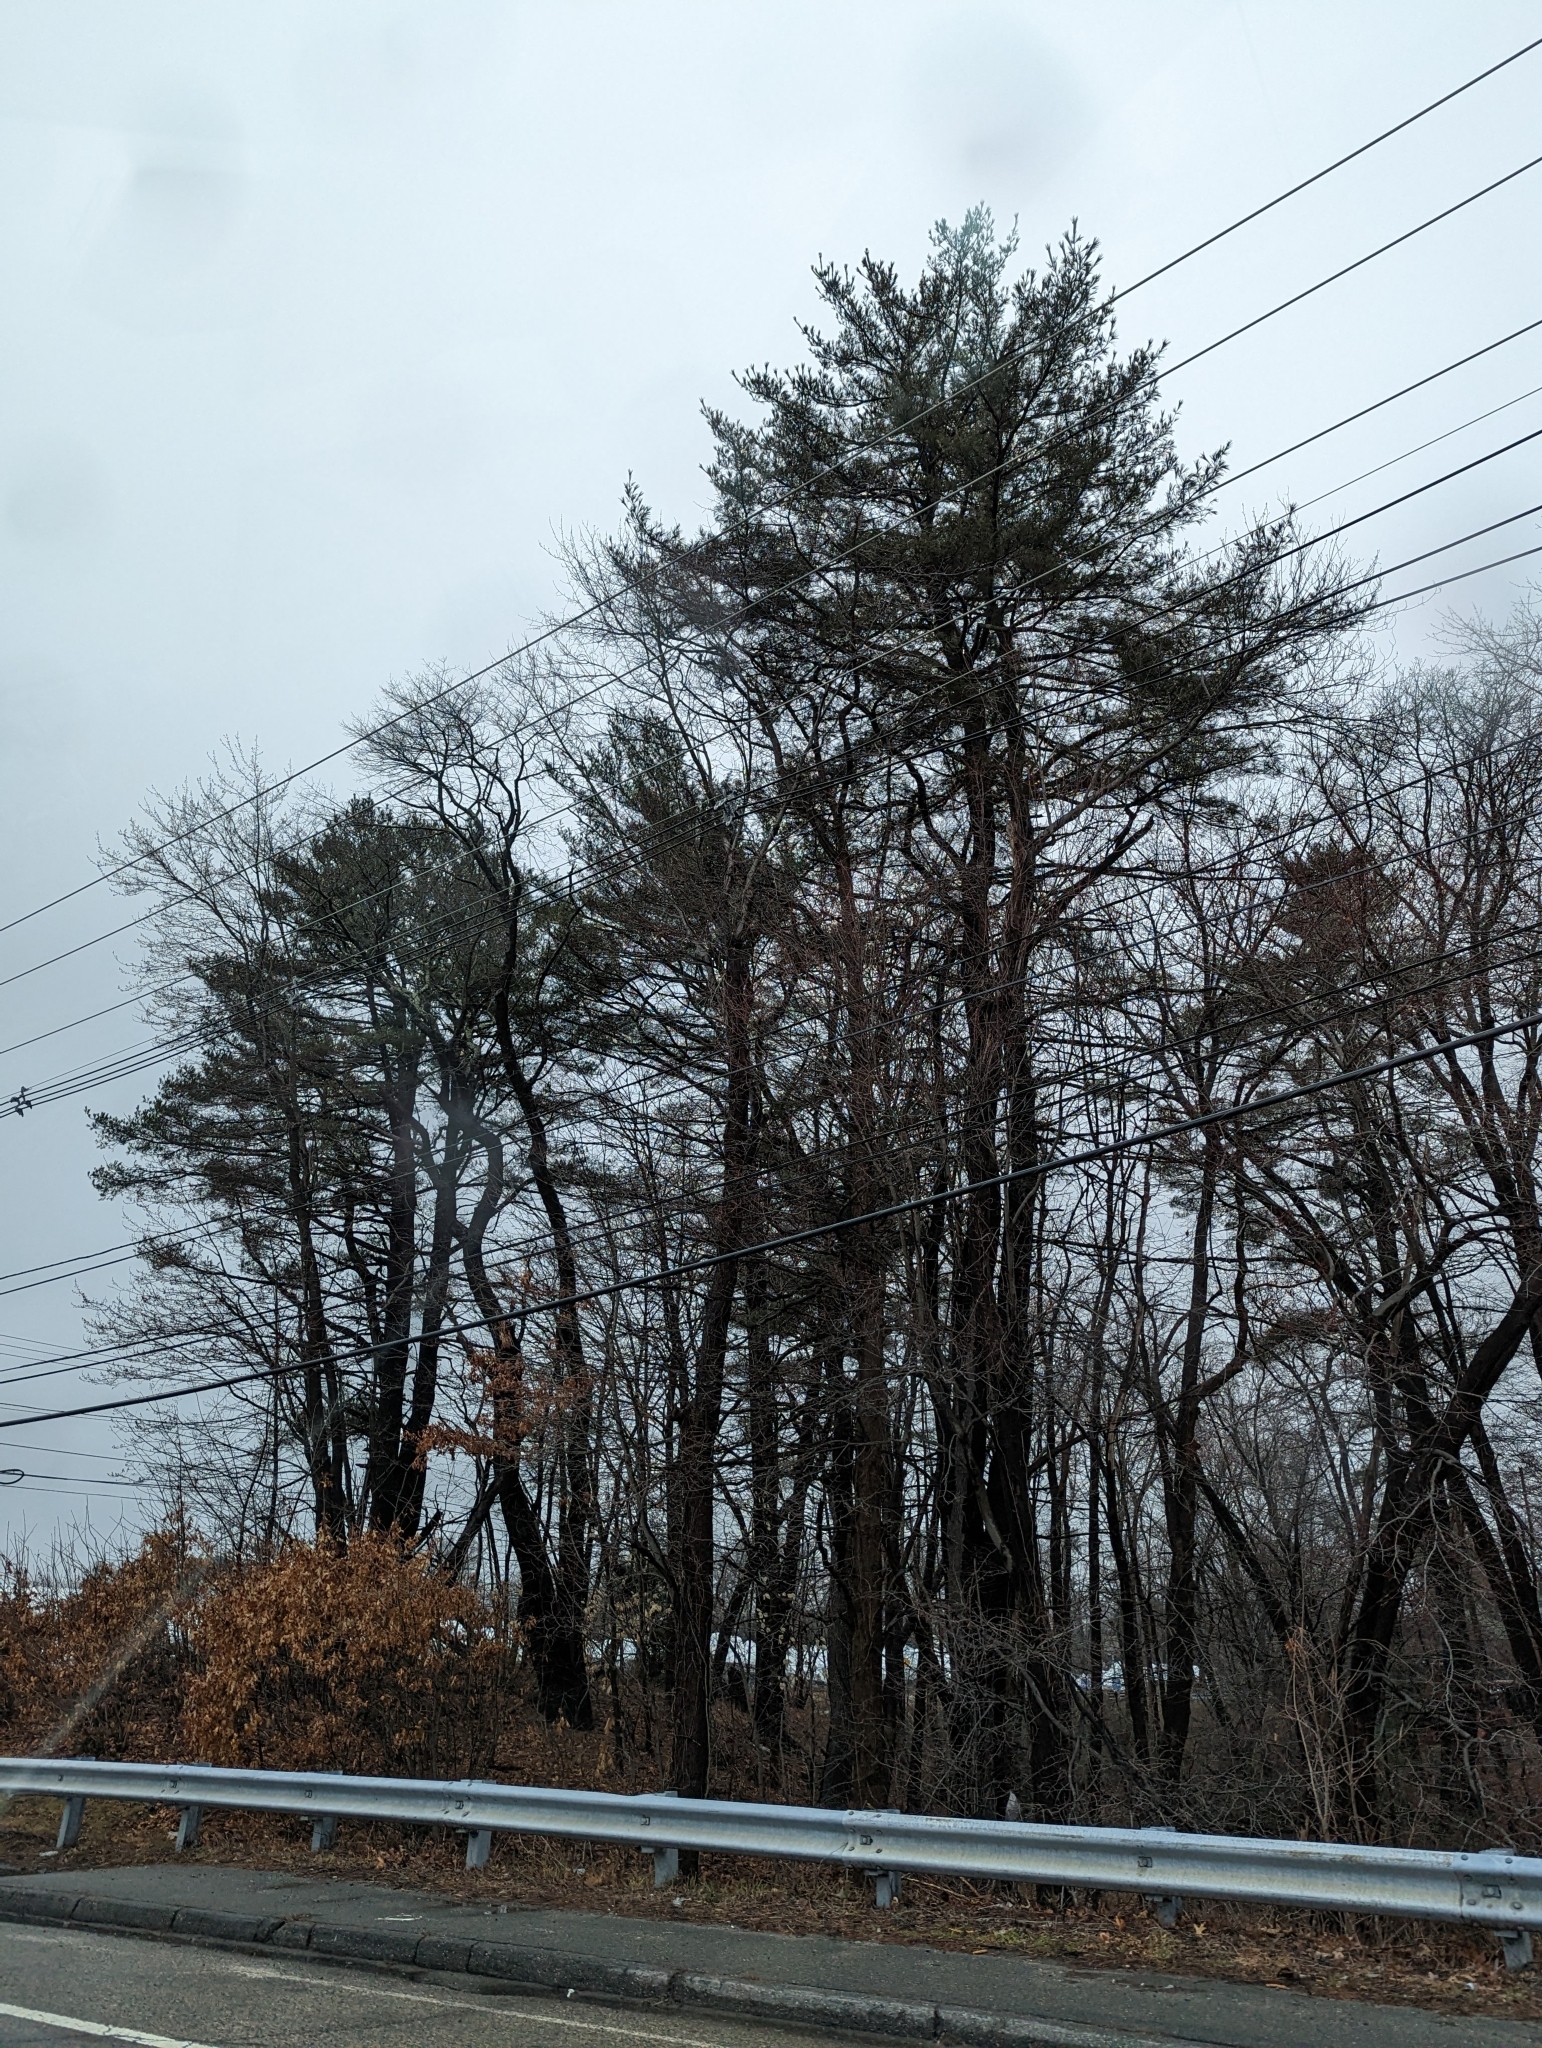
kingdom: Plantae
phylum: Tracheophyta
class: Pinopsida
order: Pinales
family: Pinaceae
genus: Pinus
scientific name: Pinus strobus
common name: Weymouth pine
